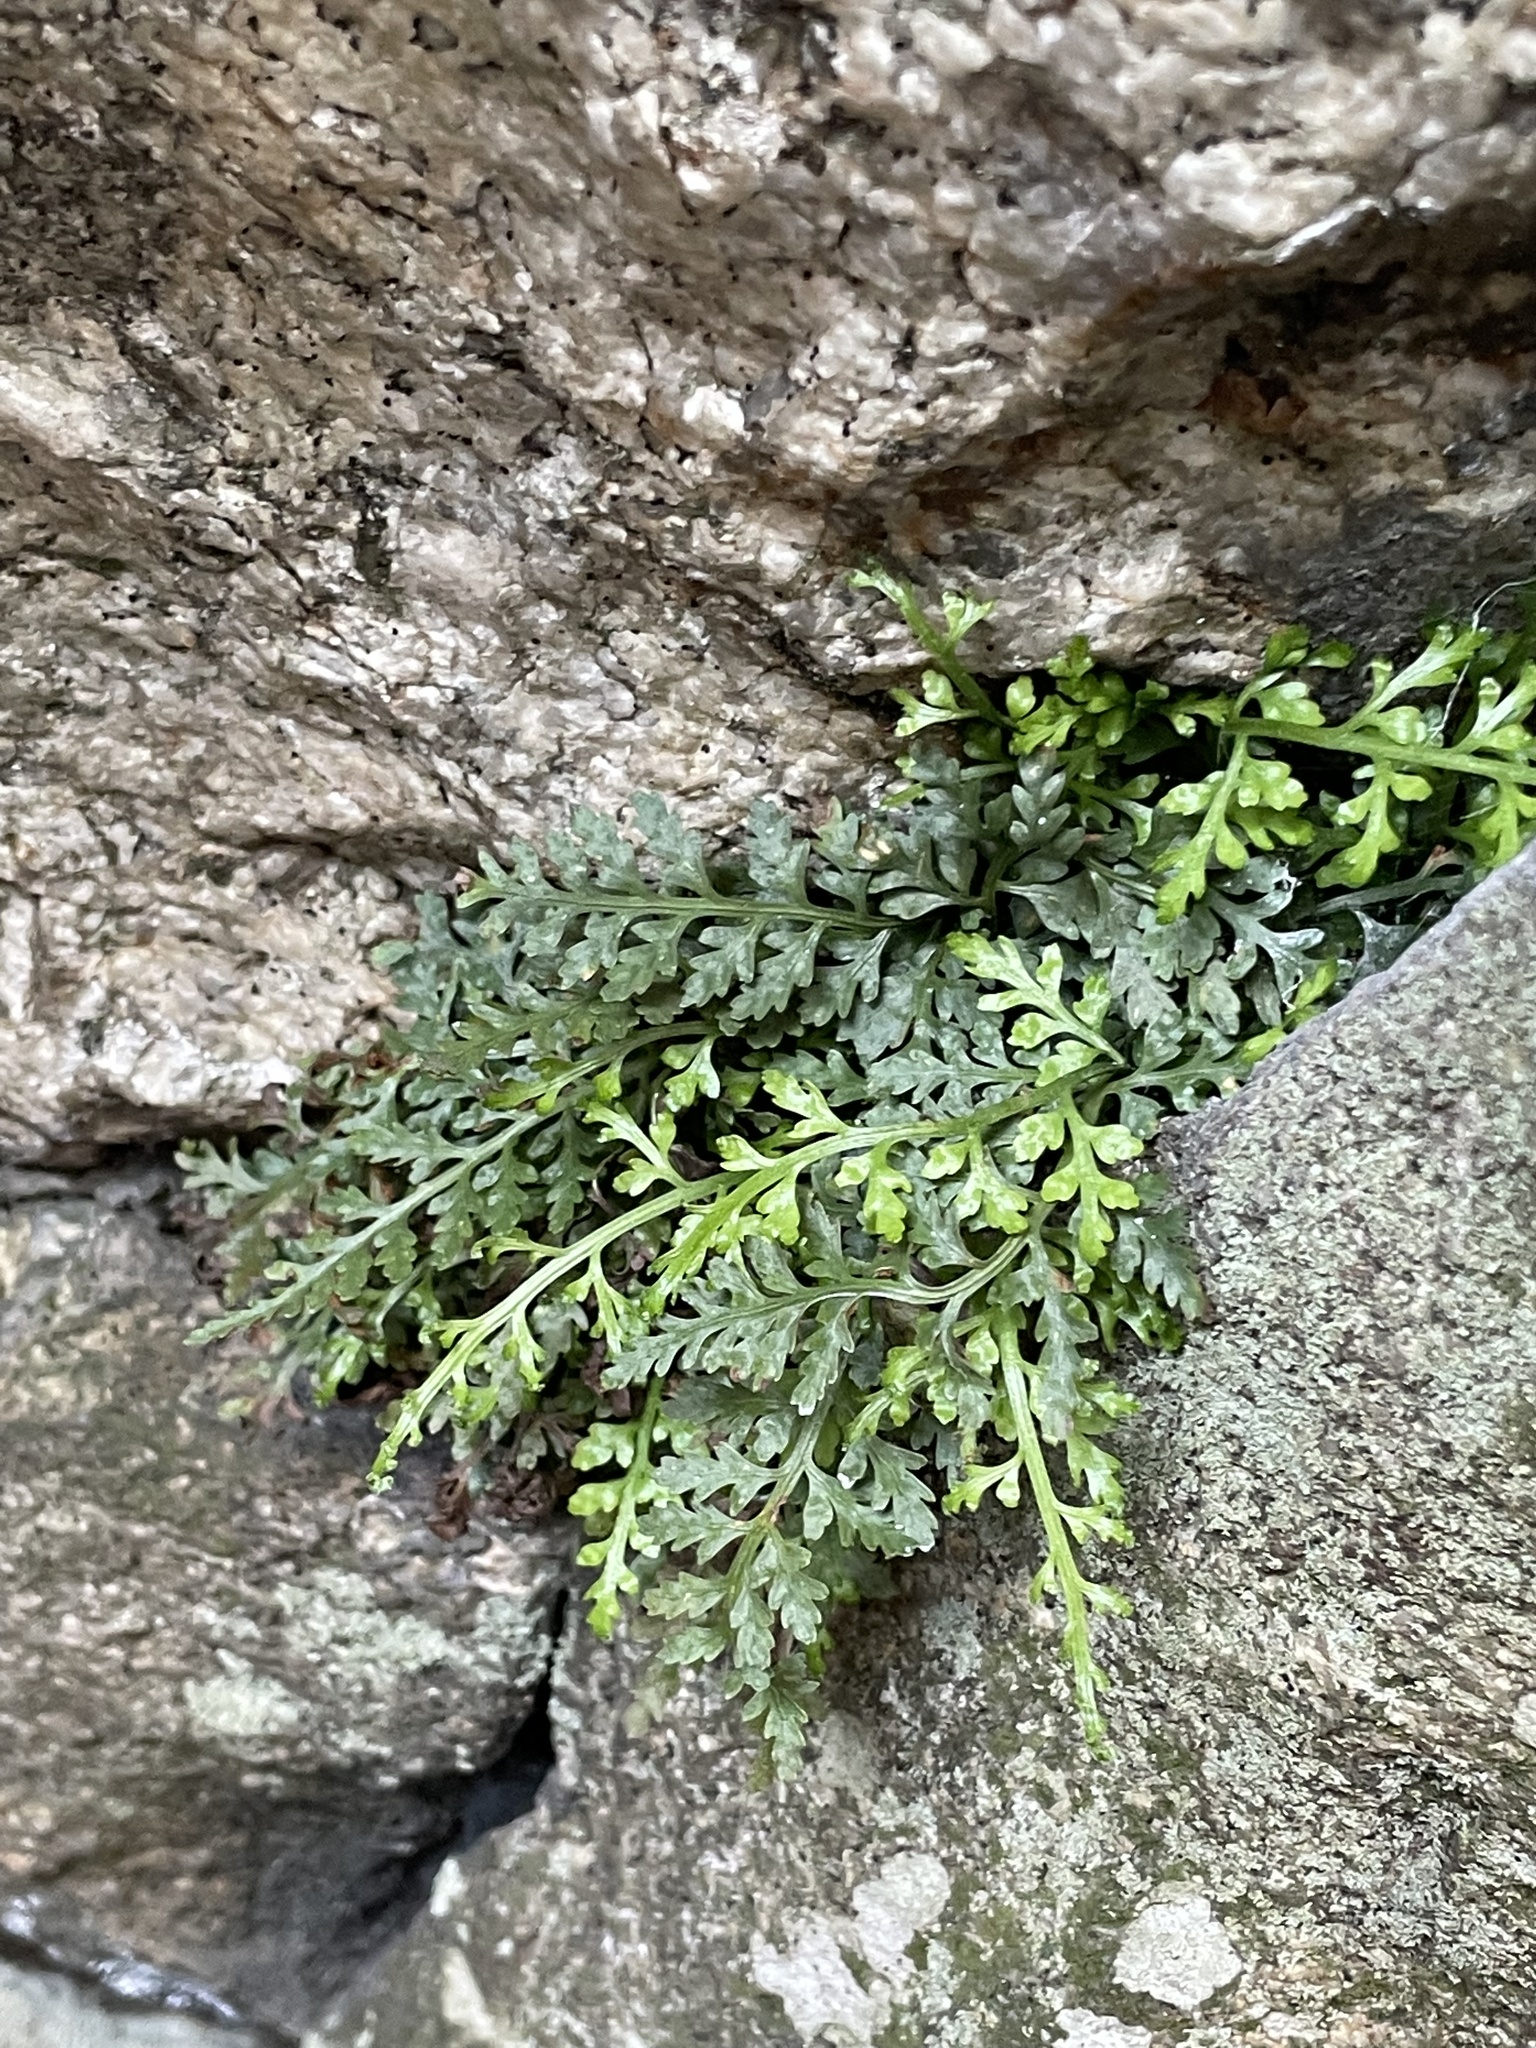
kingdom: Plantae
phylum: Tracheophyta
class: Polypodiopsida
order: Polypodiales
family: Aspleniaceae
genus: Asplenium
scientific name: Asplenium montanum
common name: Mountain spleenwort
